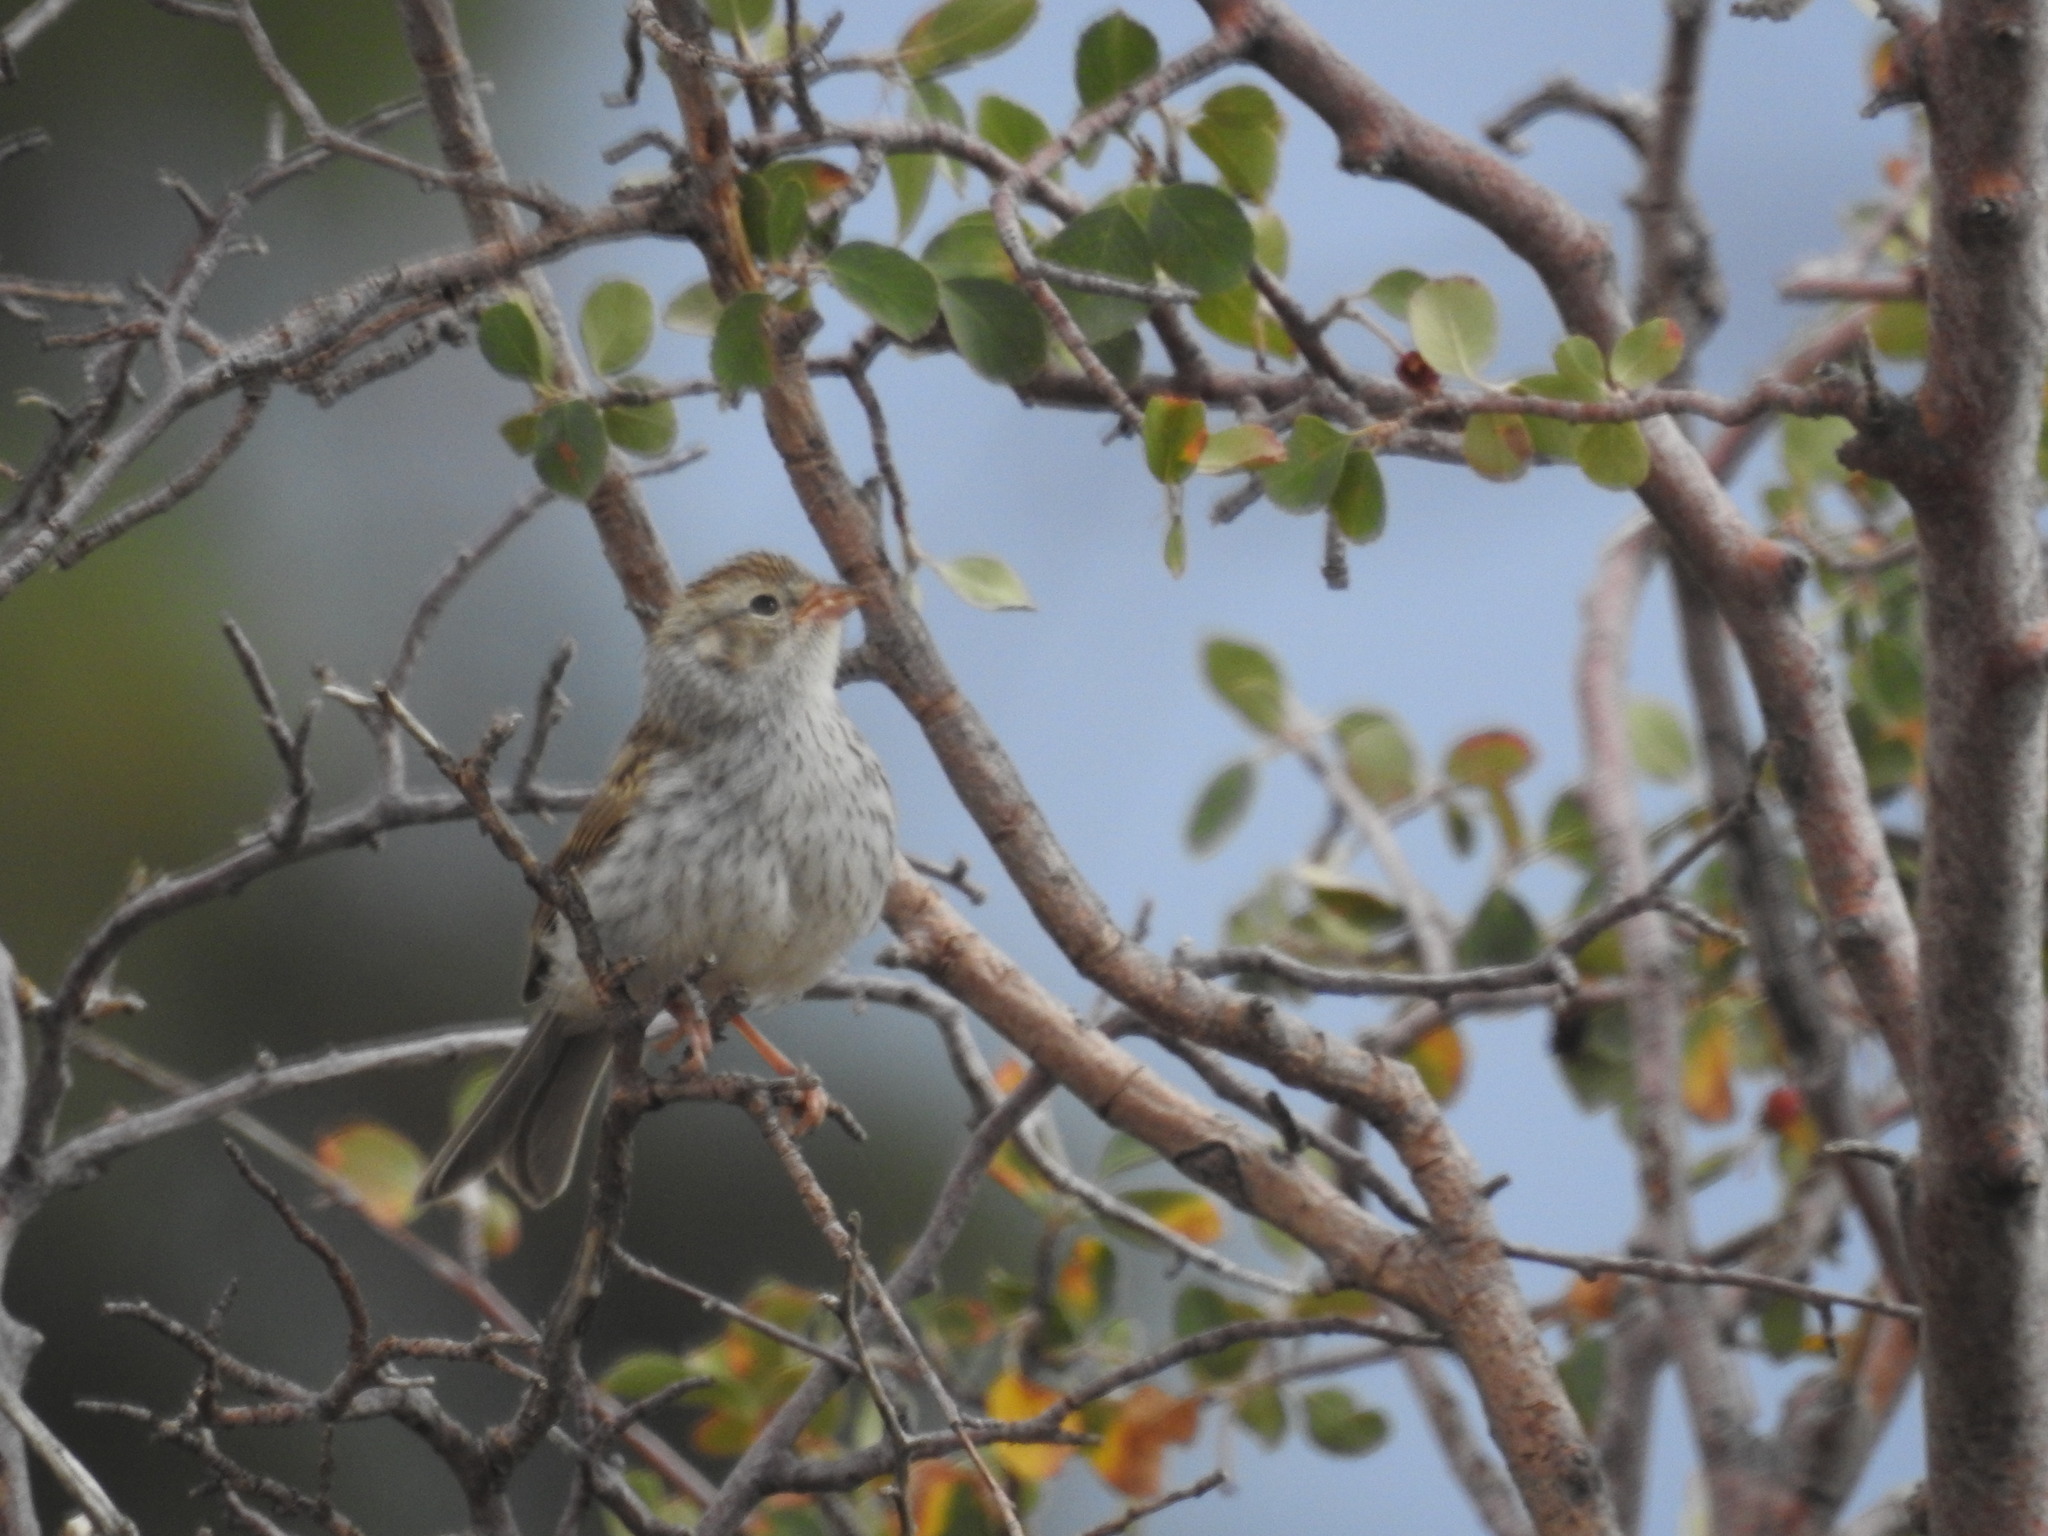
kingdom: Animalia
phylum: Chordata
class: Aves
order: Passeriformes
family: Passerellidae
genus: Spizella
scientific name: Spizella passerina
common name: Chipping sparrow
